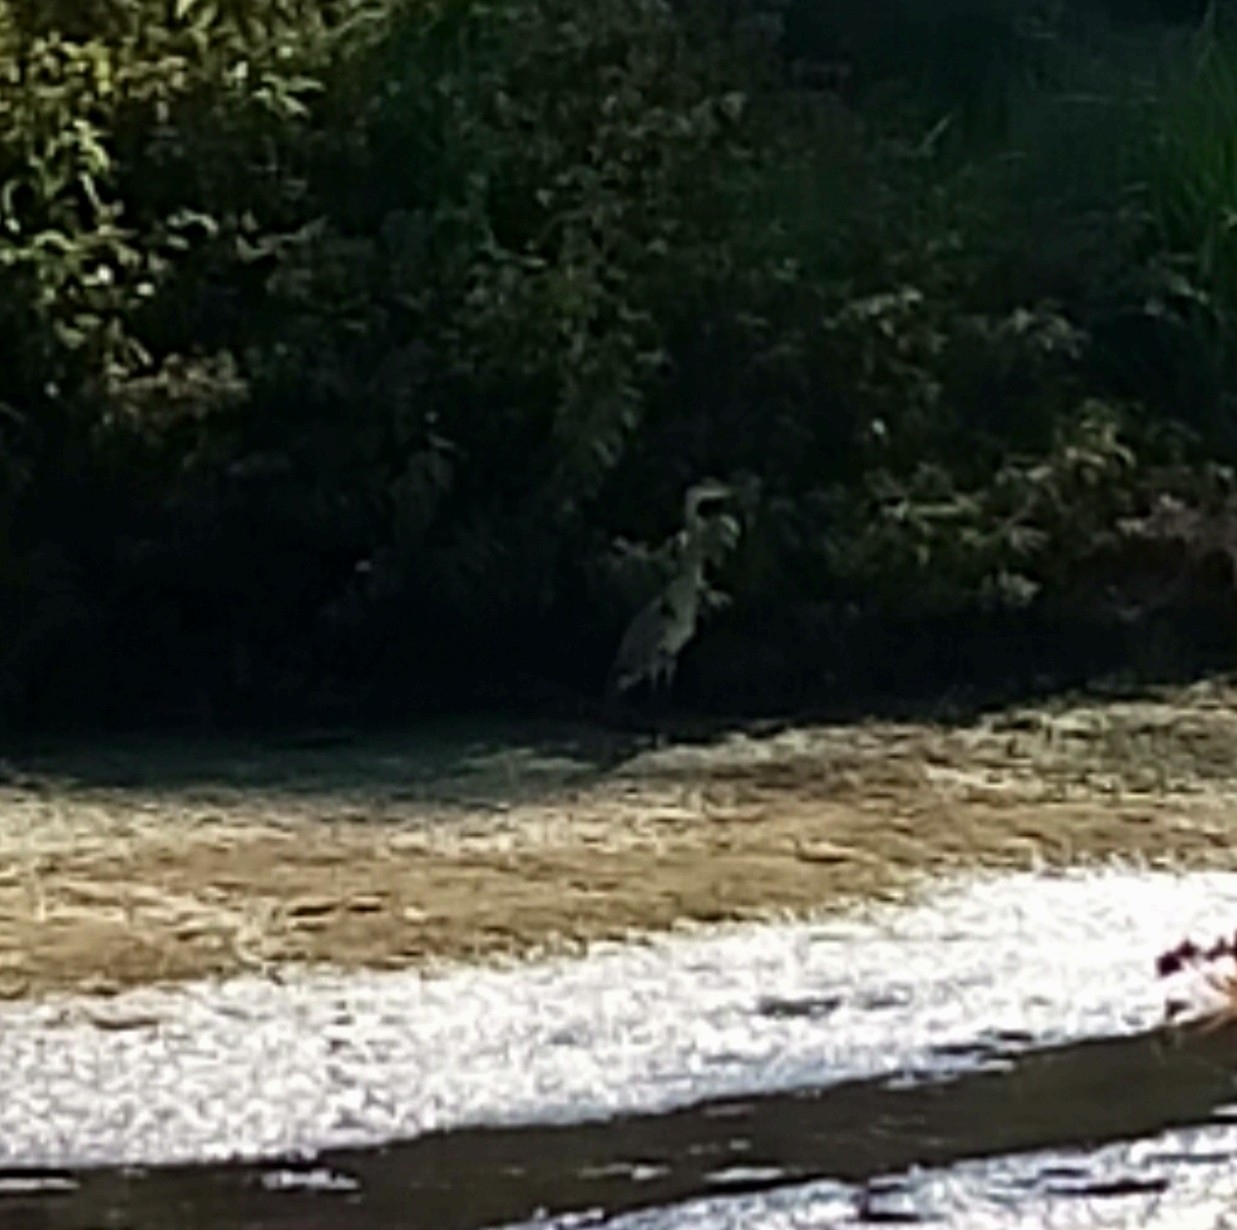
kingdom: Animalia
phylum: Chordata
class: Aves
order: Pelecaniformes
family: Ardeidae
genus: Ardea
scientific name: Ardea cinerea
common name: Grey heron
